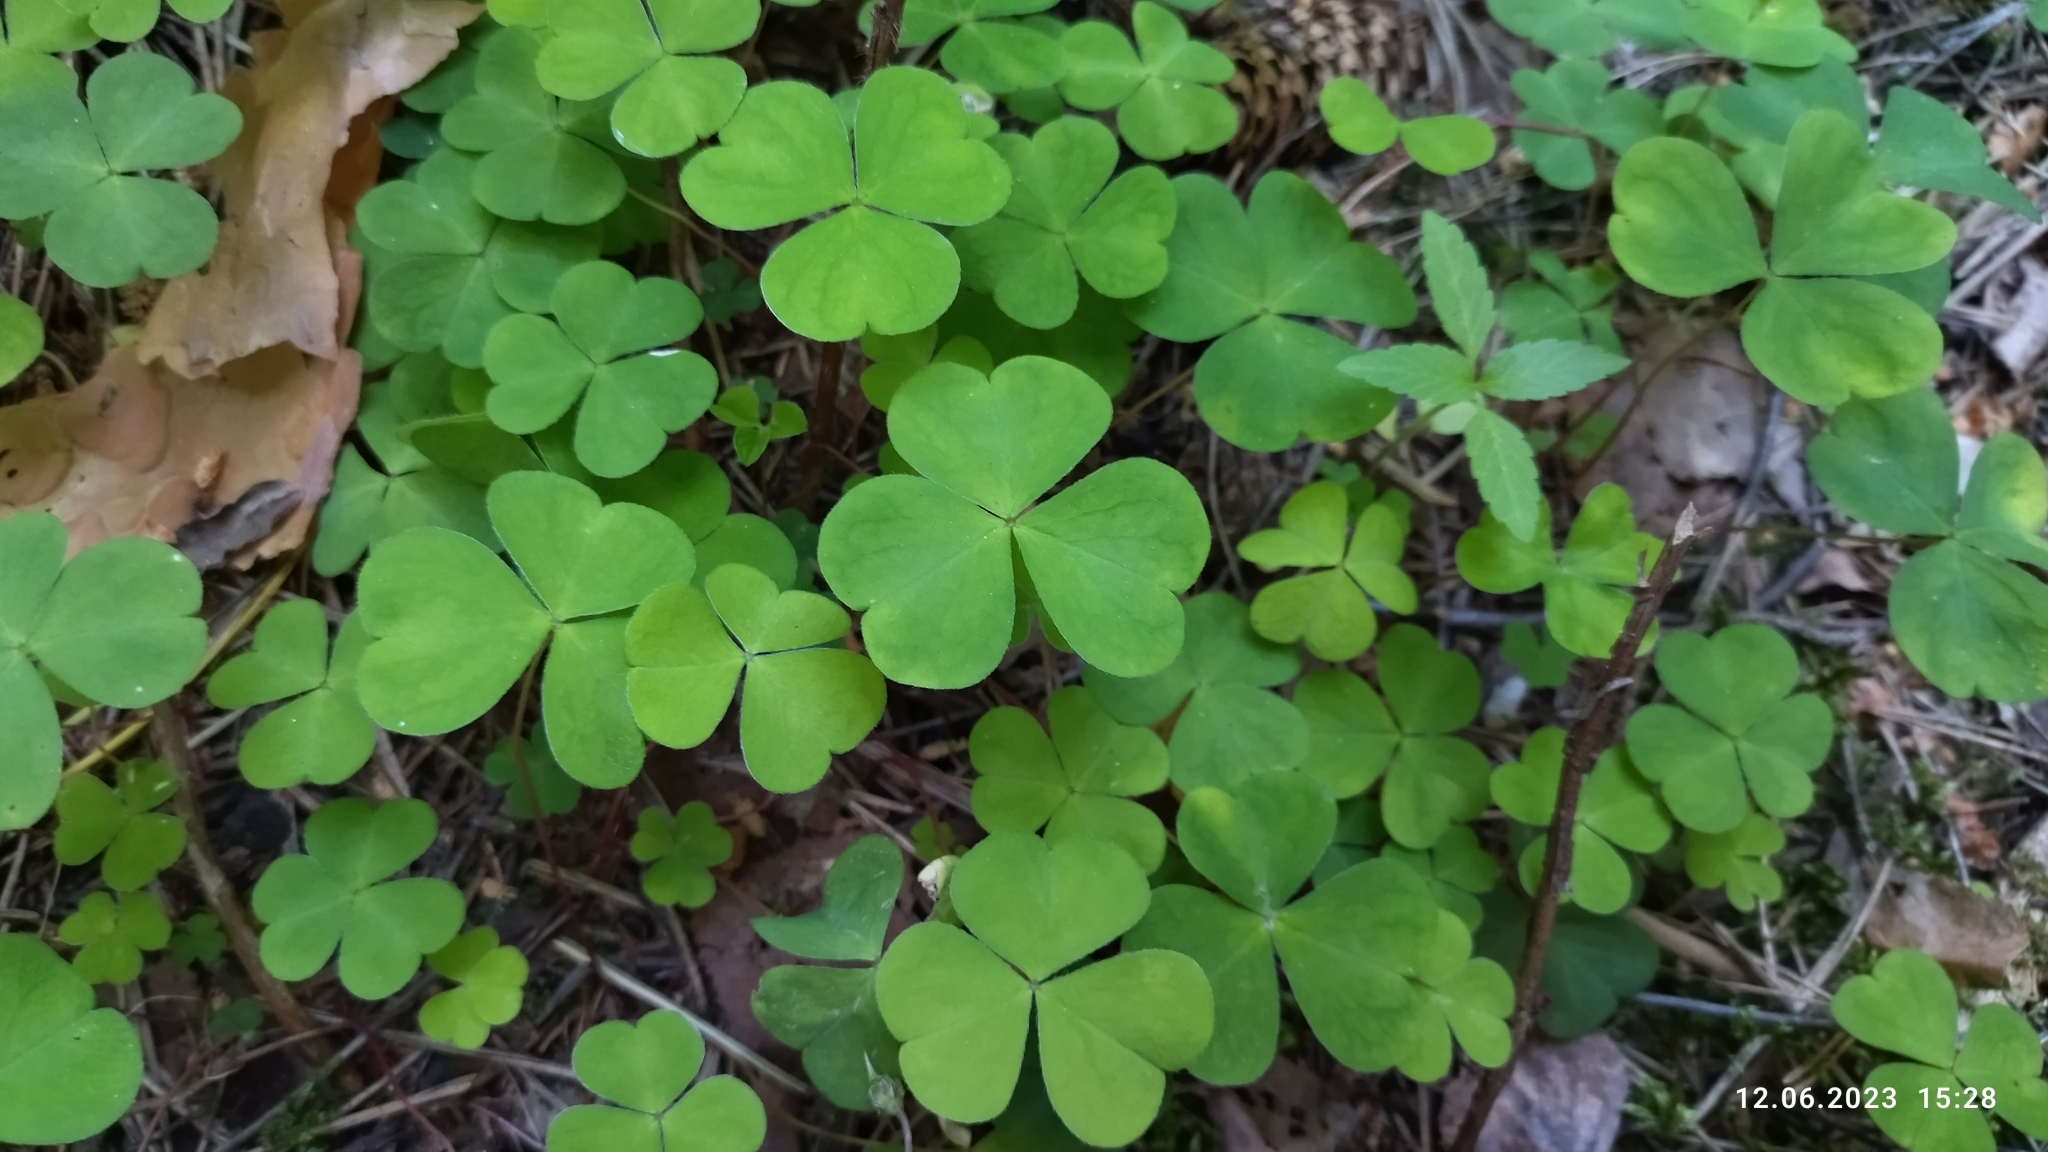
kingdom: Plantae
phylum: Tracheophyta
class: Magnoliopsida
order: Oxalidales
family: Oxalidaceae
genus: Oxalis
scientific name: Oxalis acetosella
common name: Wood-sorrel
